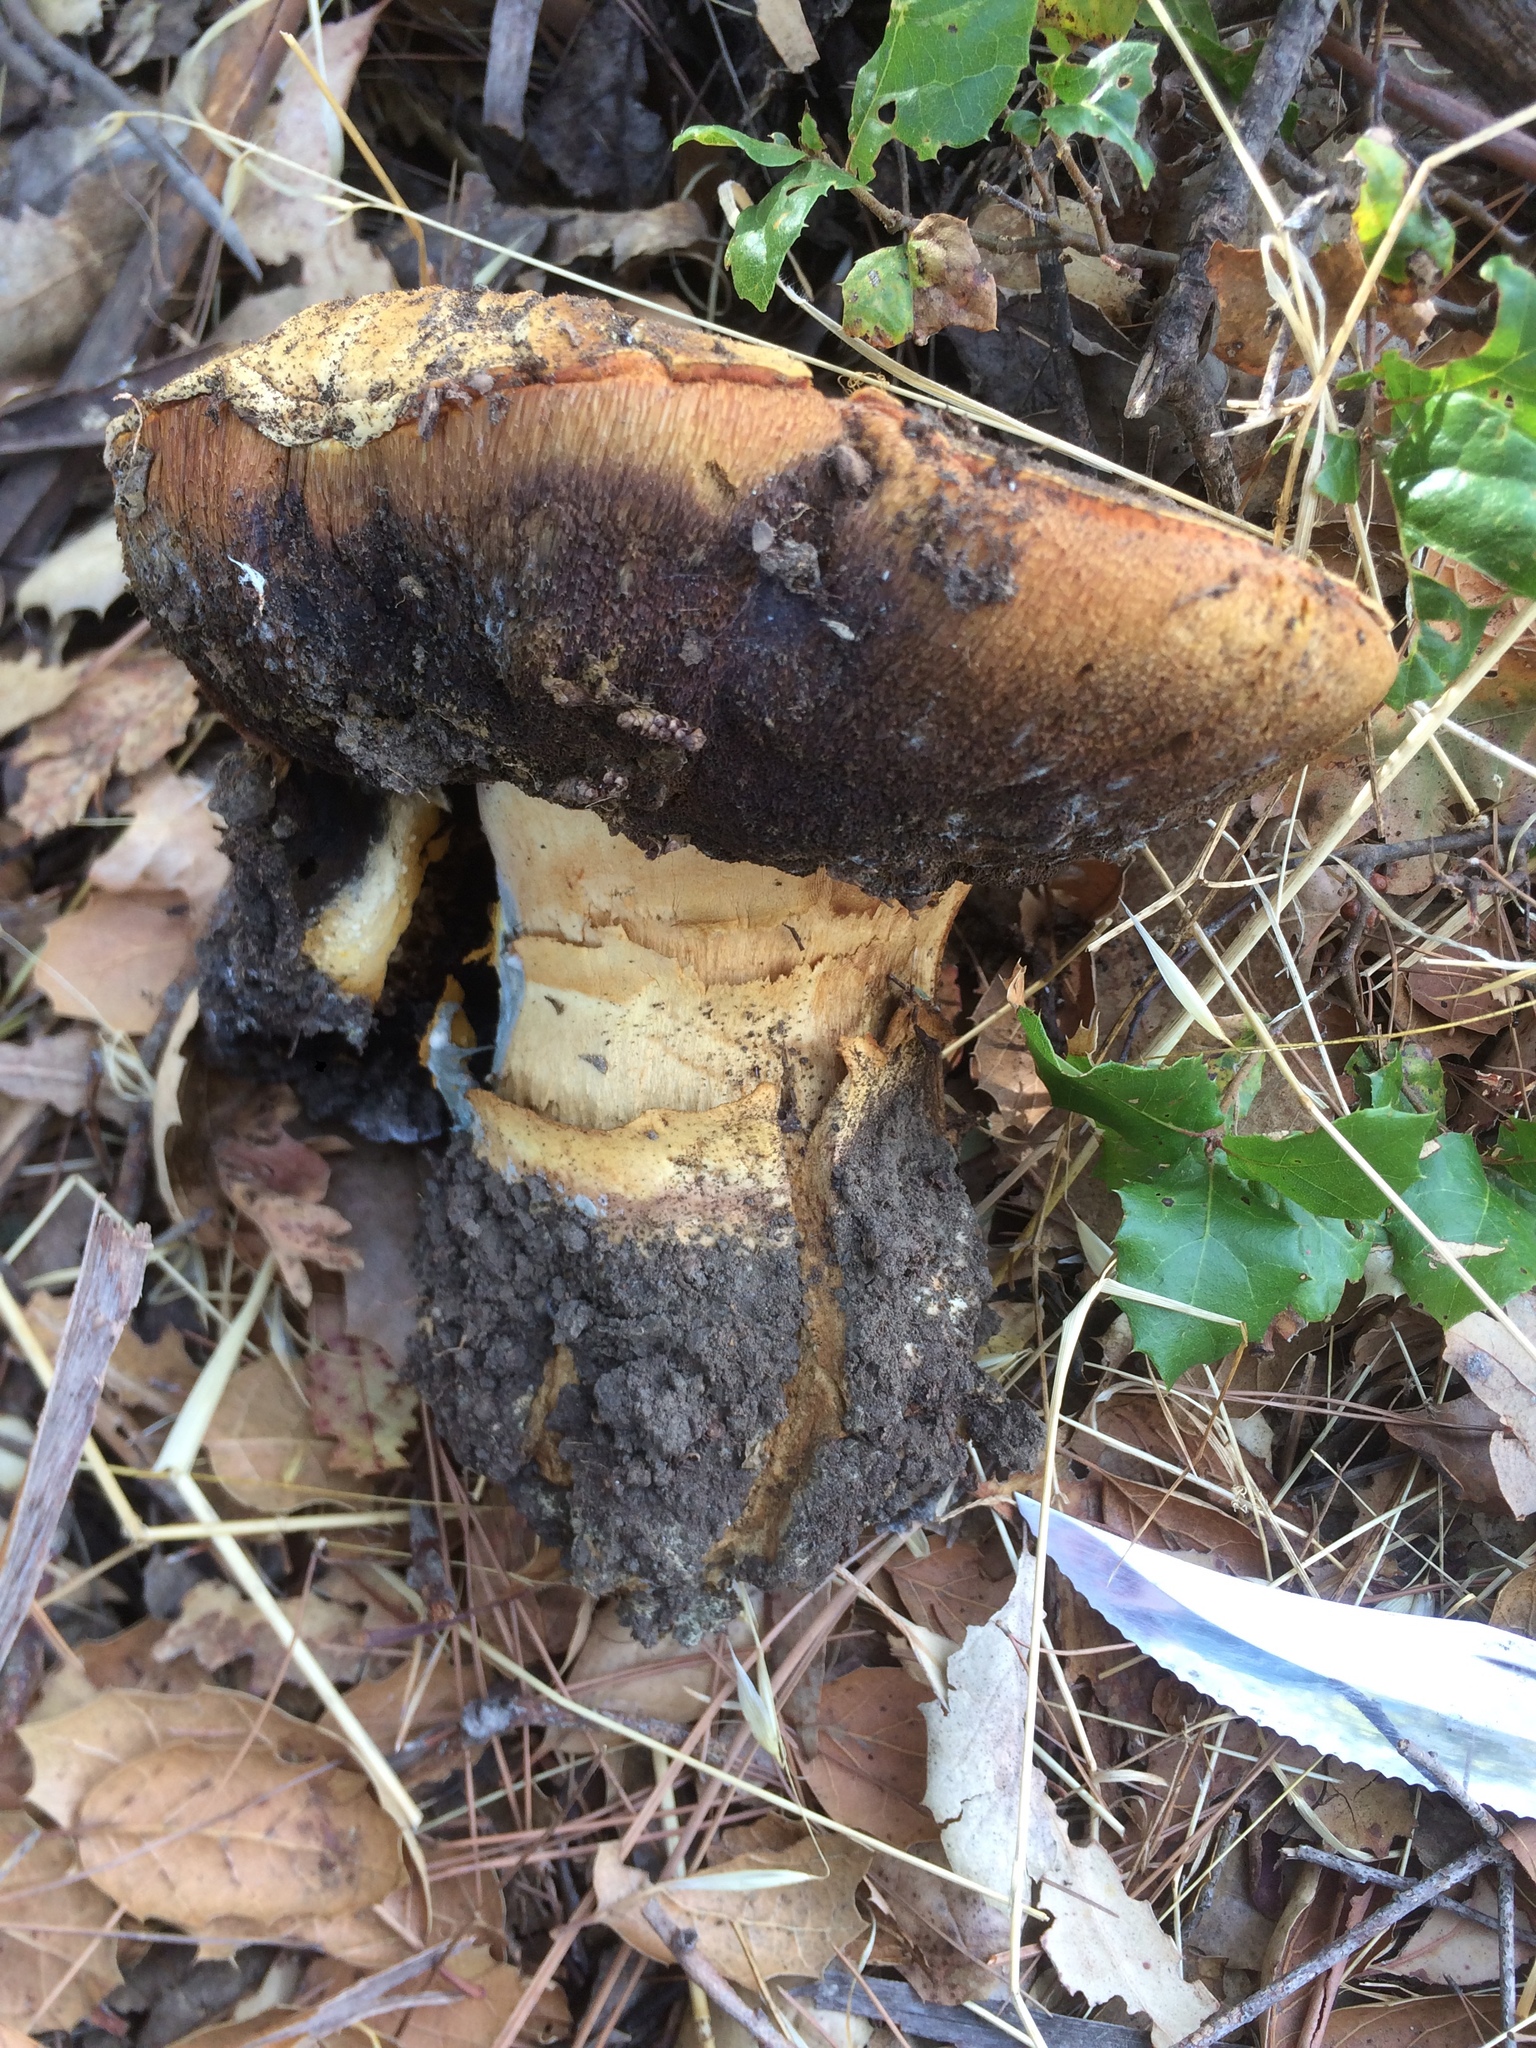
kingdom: Fungi
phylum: Basidiomycota
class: Agaricomycetes
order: Boletales
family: Boletaceae
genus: Boletus
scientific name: Boletus barrowsii
